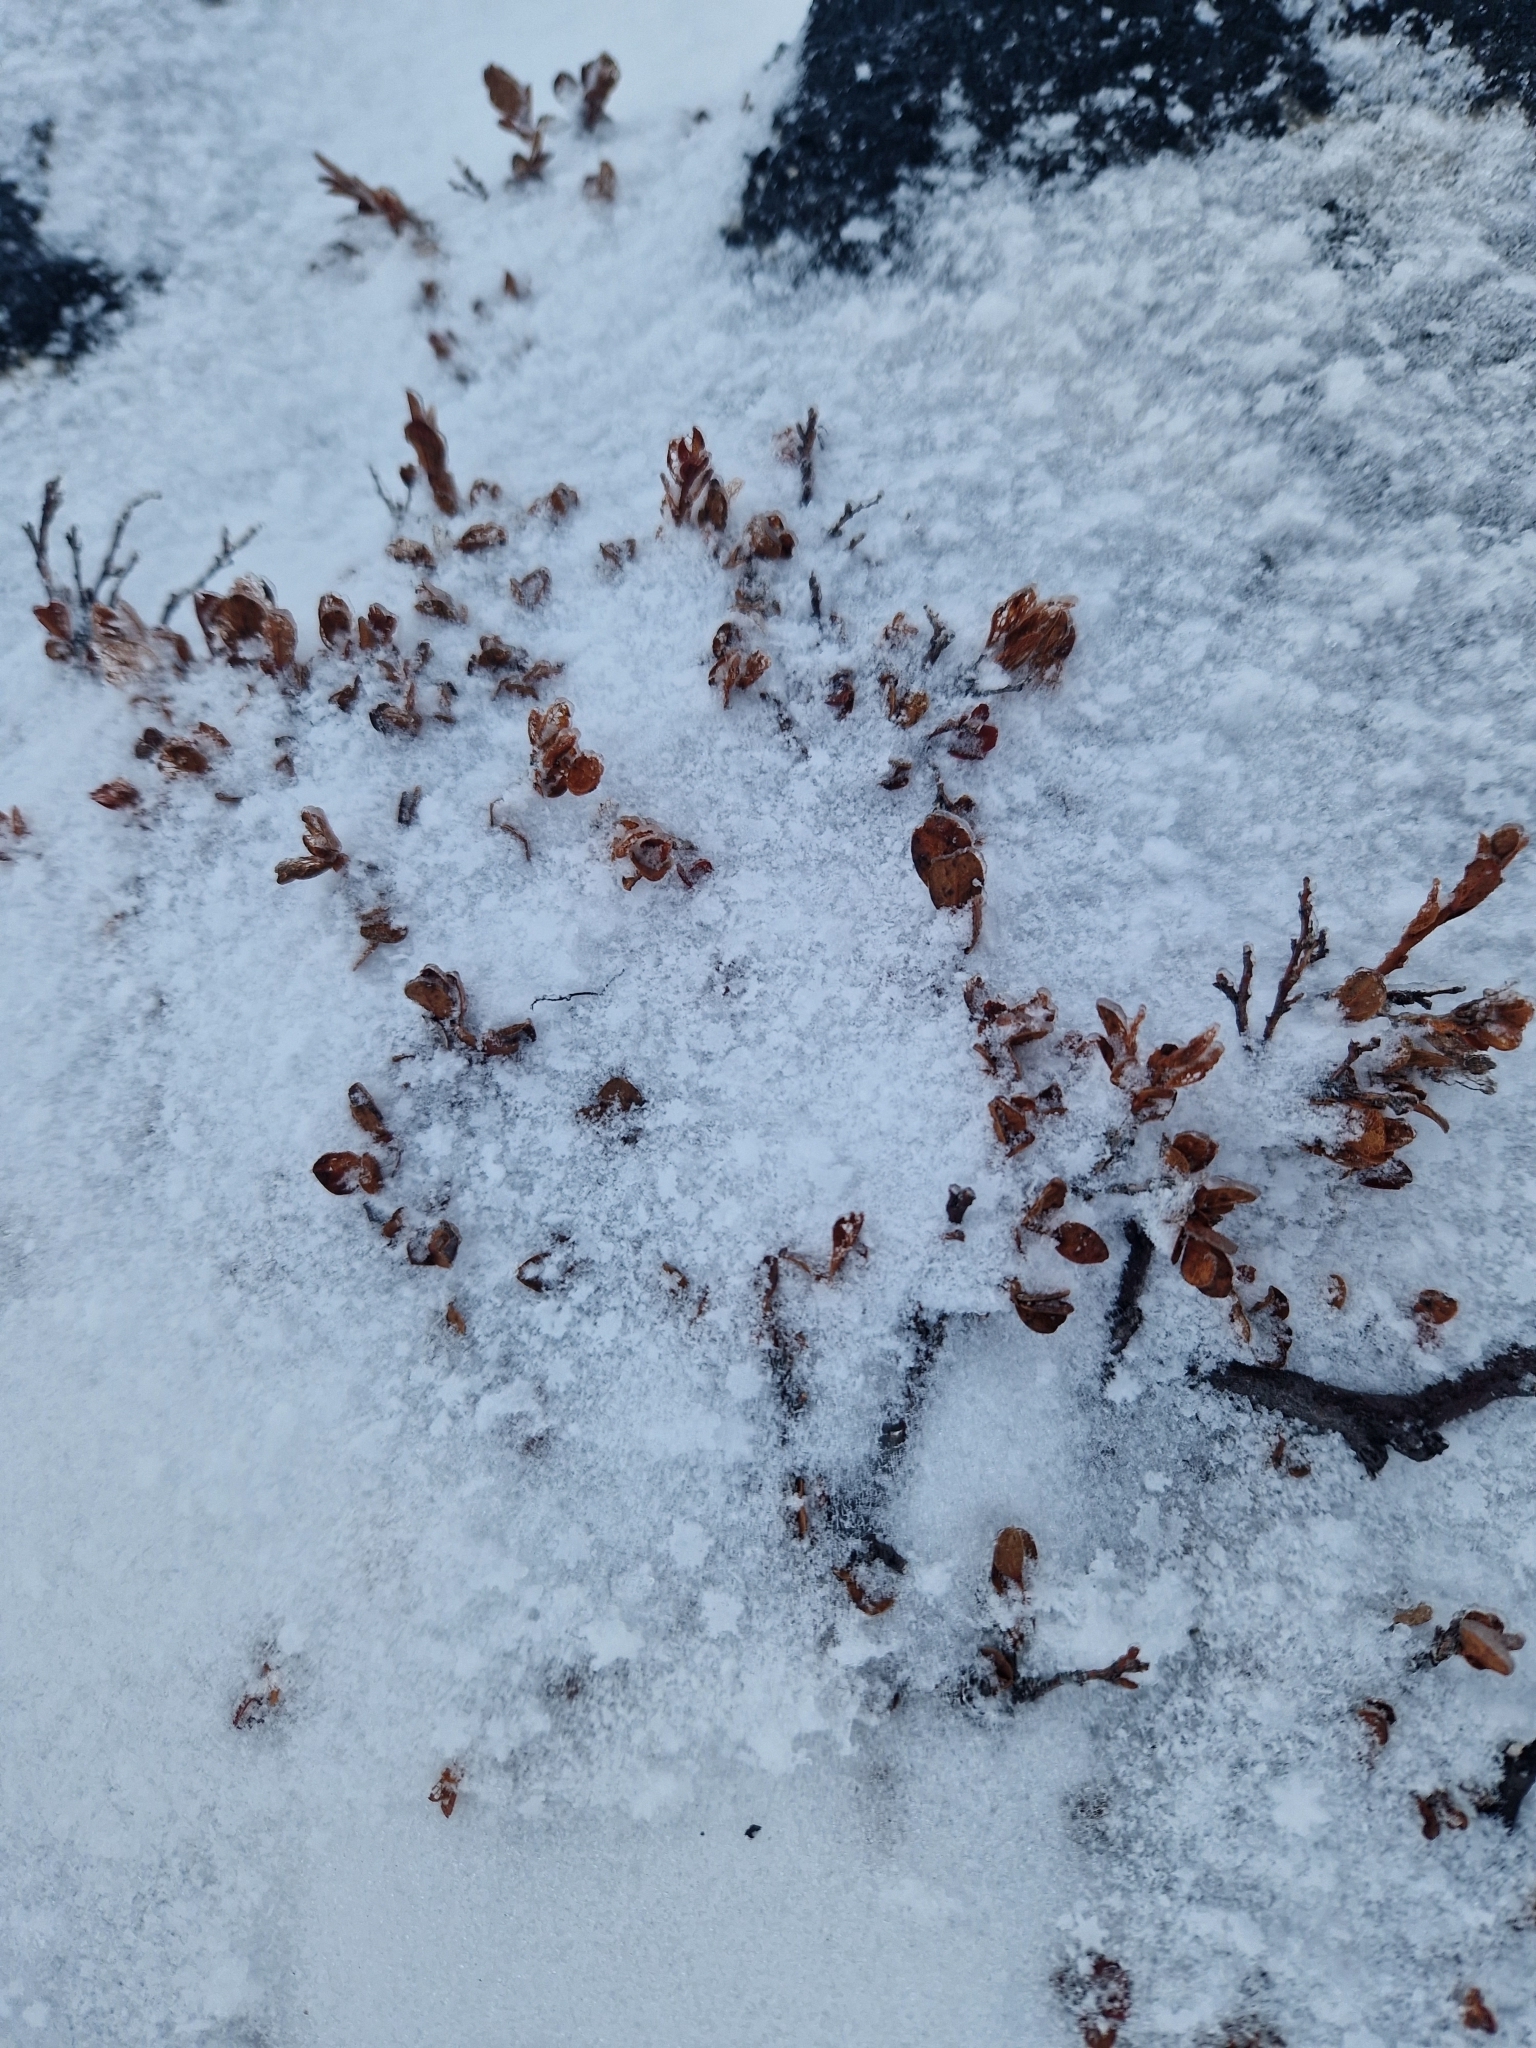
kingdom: Plantae
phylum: Tracheophyta
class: Magnoliopsida
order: Ericales
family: Ericaceae
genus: Vaccinium
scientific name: Vaccinium uliginosum
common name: Bog bilberry
